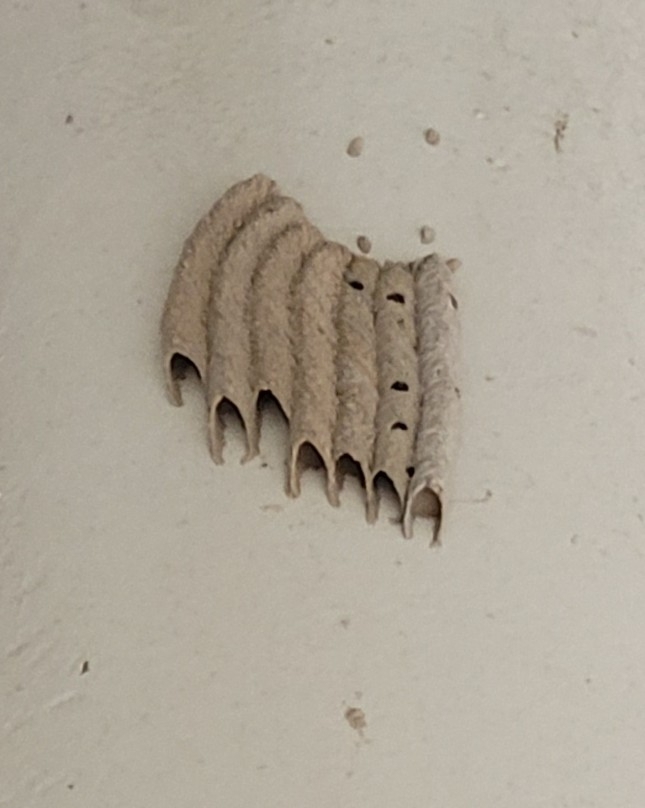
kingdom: Animalia
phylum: Arthropoda
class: Insecta
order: Hymenoptera
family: Crabronidae
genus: Trypoxylon
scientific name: Trypoxylon politum
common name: Organ-pipe mud-dauber wasp
